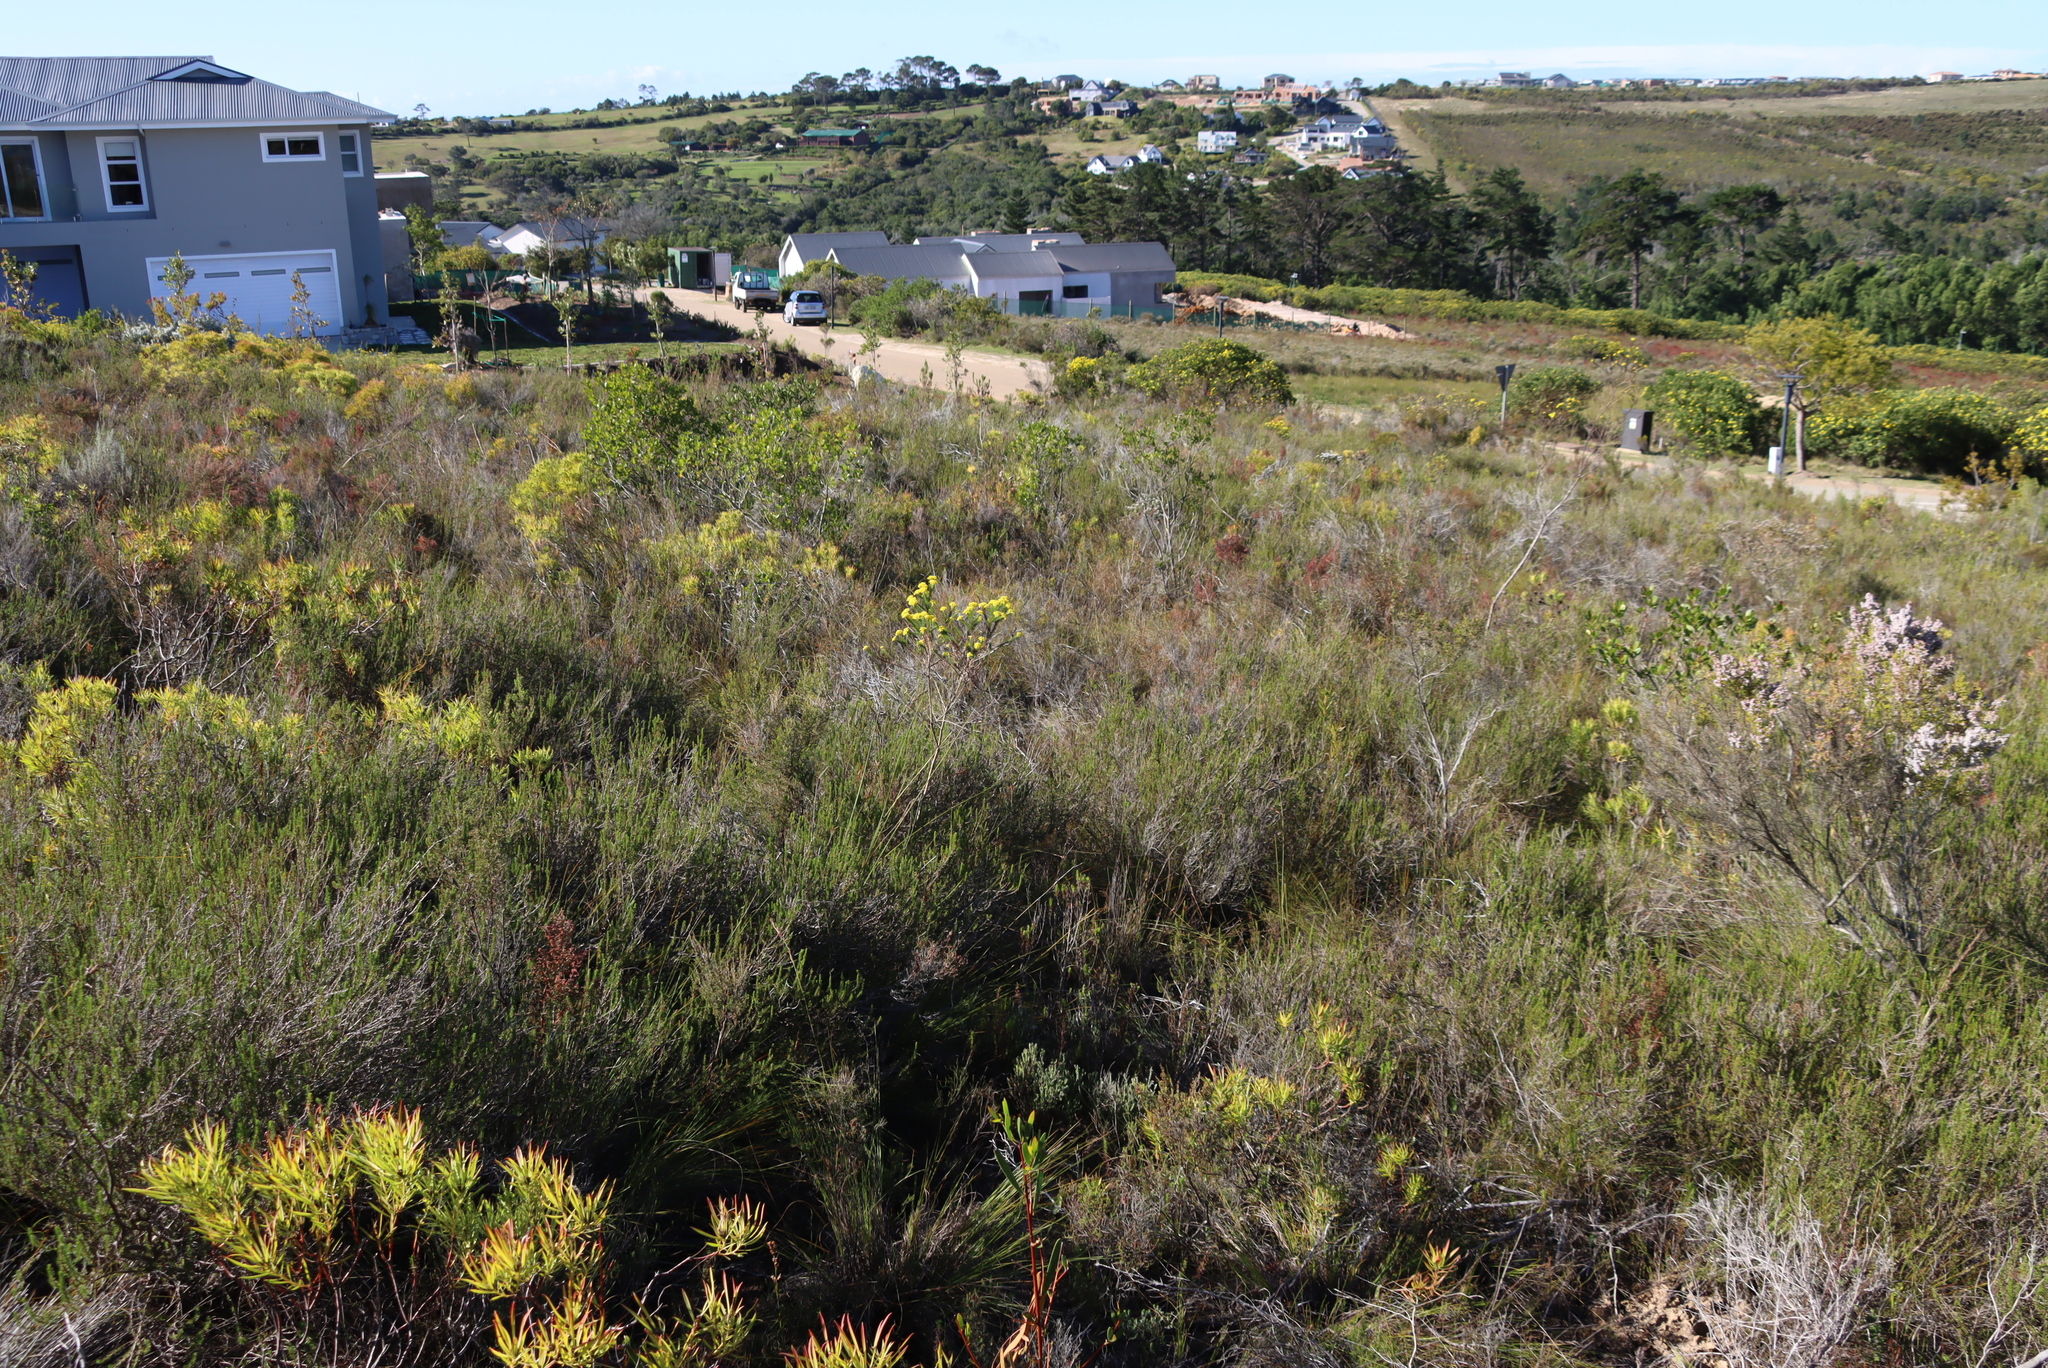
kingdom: Plantae
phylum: Tracheophyta
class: Magnoliopsida
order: Proteales
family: Proteaceae
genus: Leucadendron
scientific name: Leucadendron salignum
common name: Common sunshine conebush
